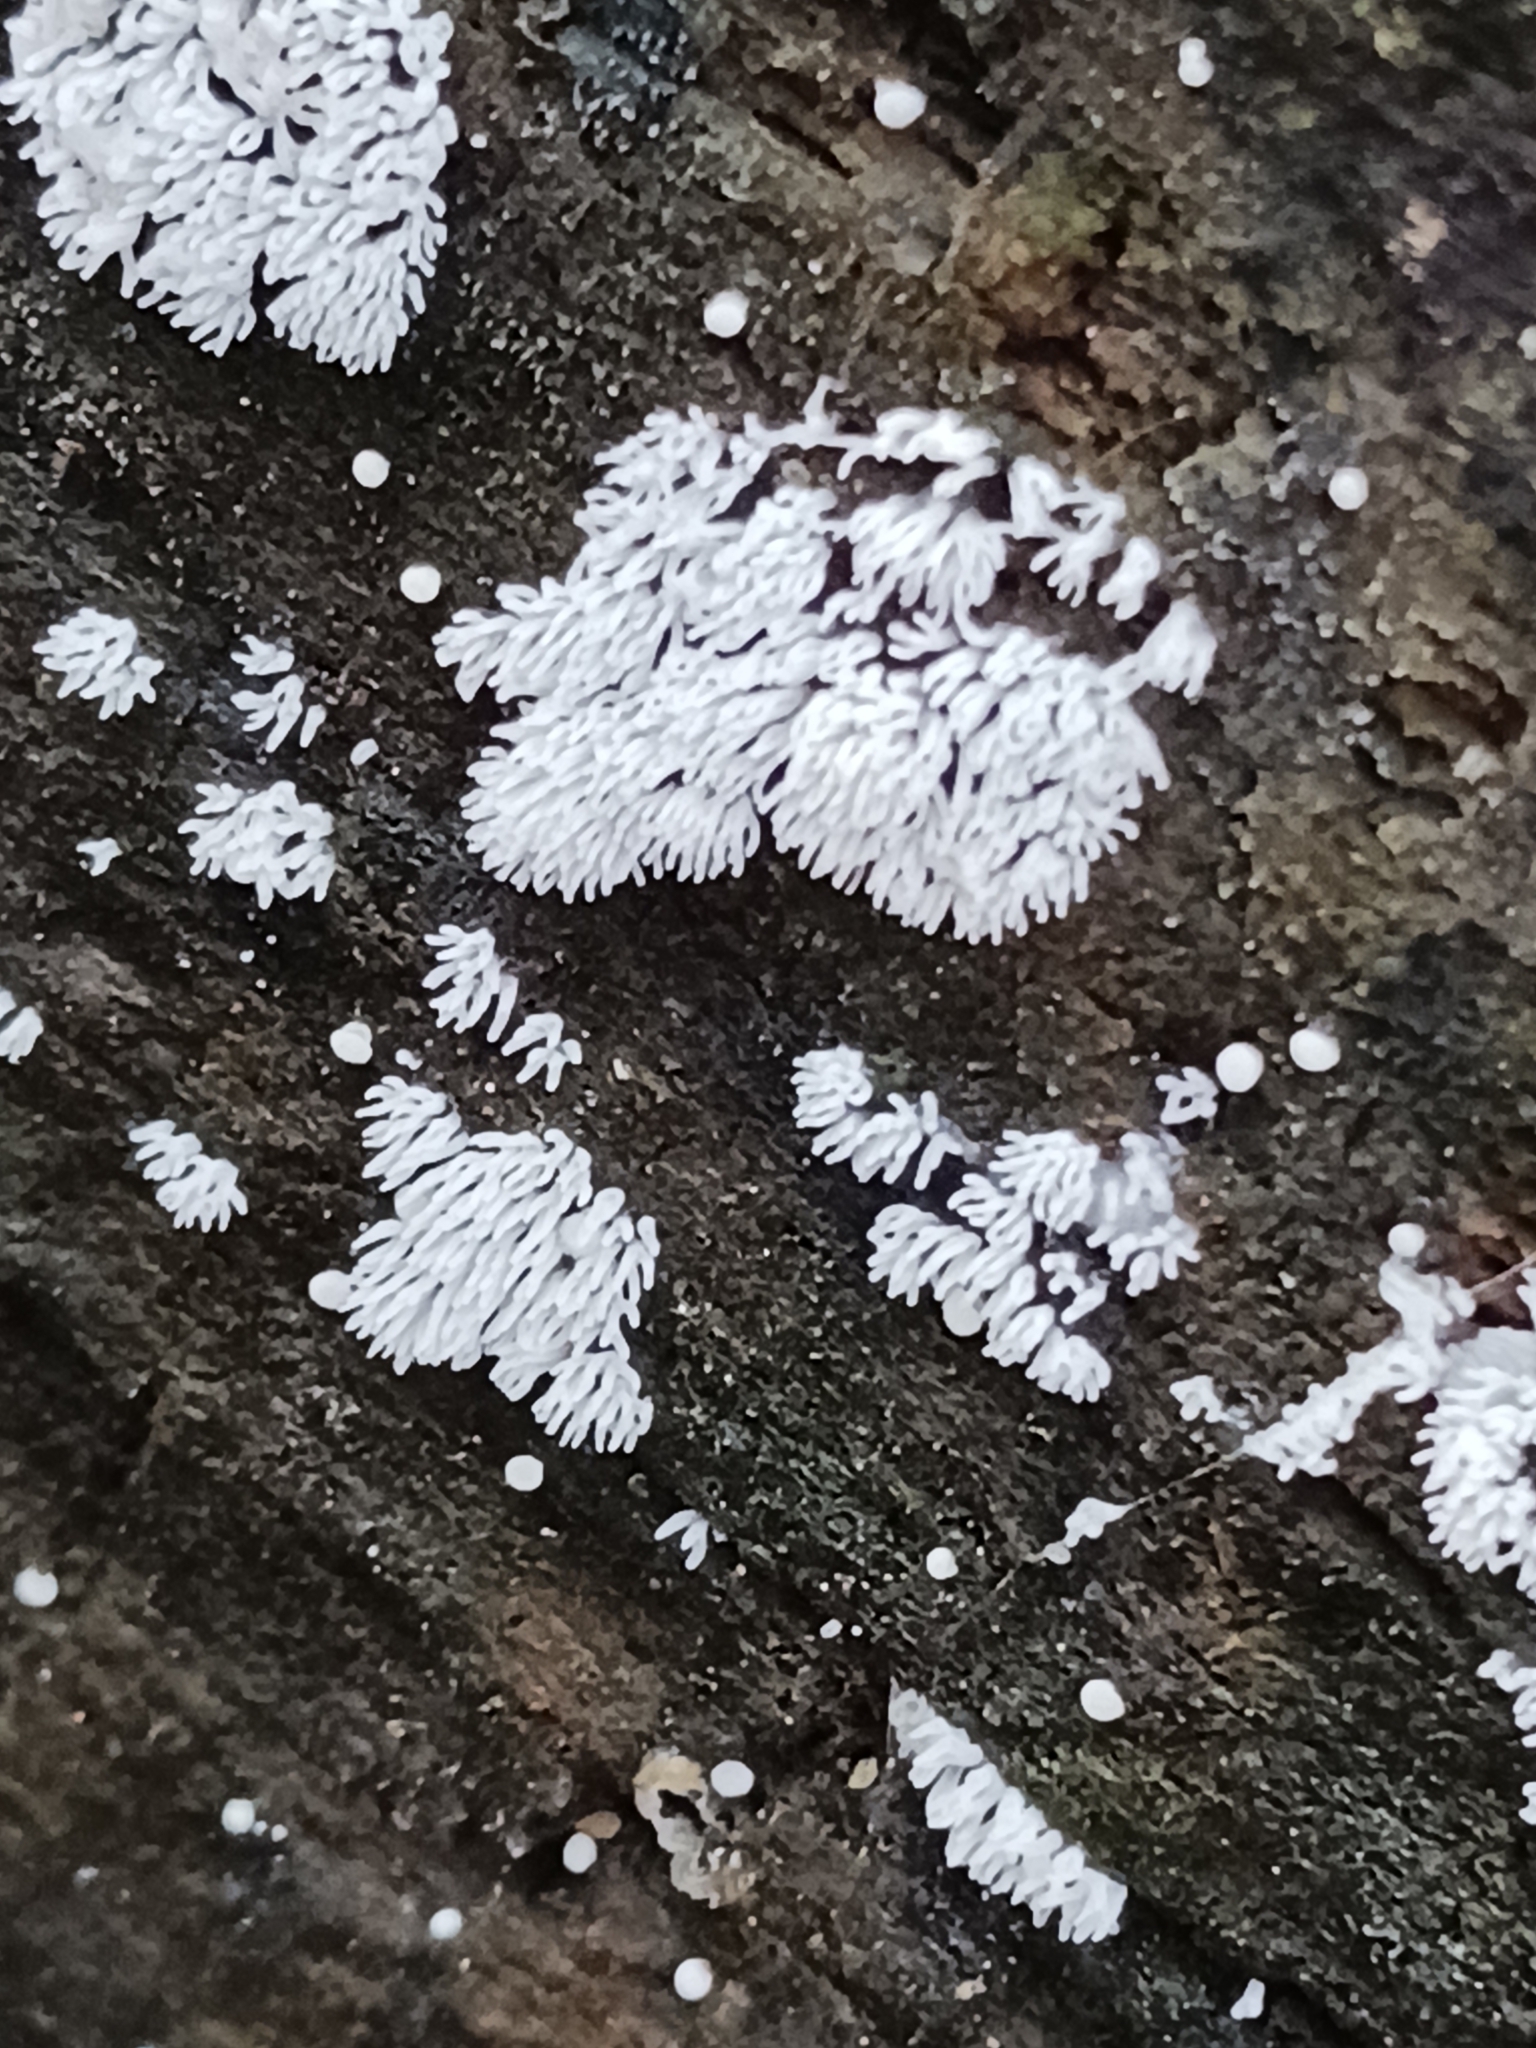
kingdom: Protozoa
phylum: Mycetozoa
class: Protosteliomycetes
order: Ceratiomyxales
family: Ceratiomyxaceae
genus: Ceratiomyxa
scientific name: Ceratiomyxa fruticulosa
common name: Honeycomb coral slime mold
